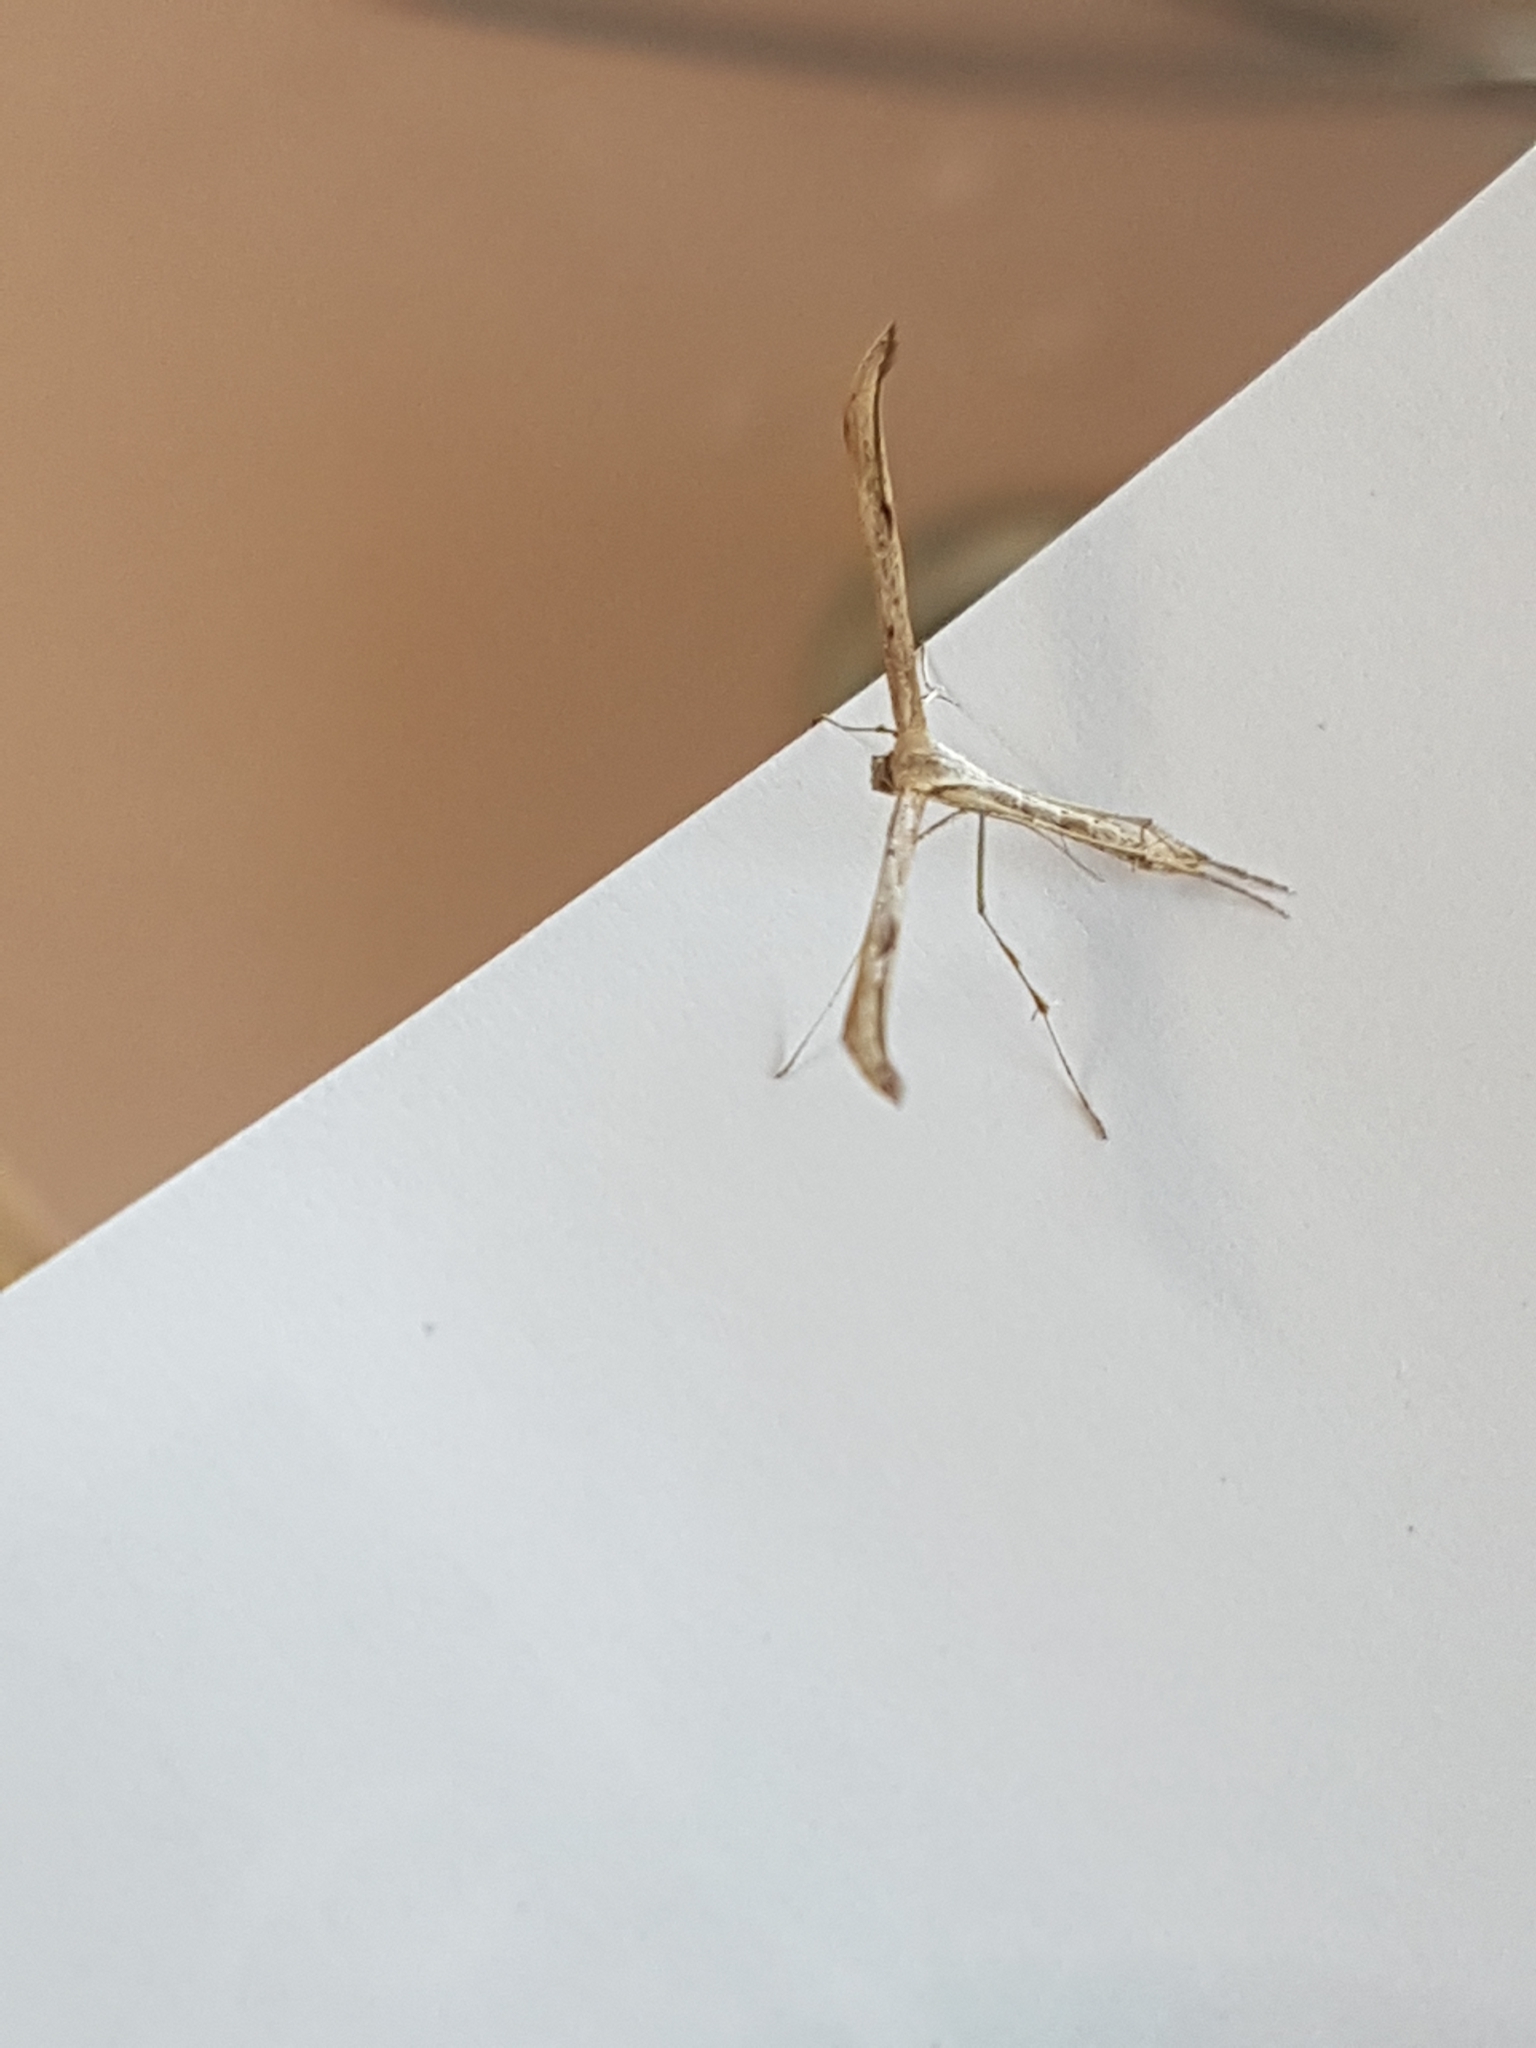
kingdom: Animalia
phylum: Arthropoda
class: Insecta
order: Lepidoptera
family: Pterophoridae
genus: Emmelina
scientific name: Emmelina monodactyla
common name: Common plume
